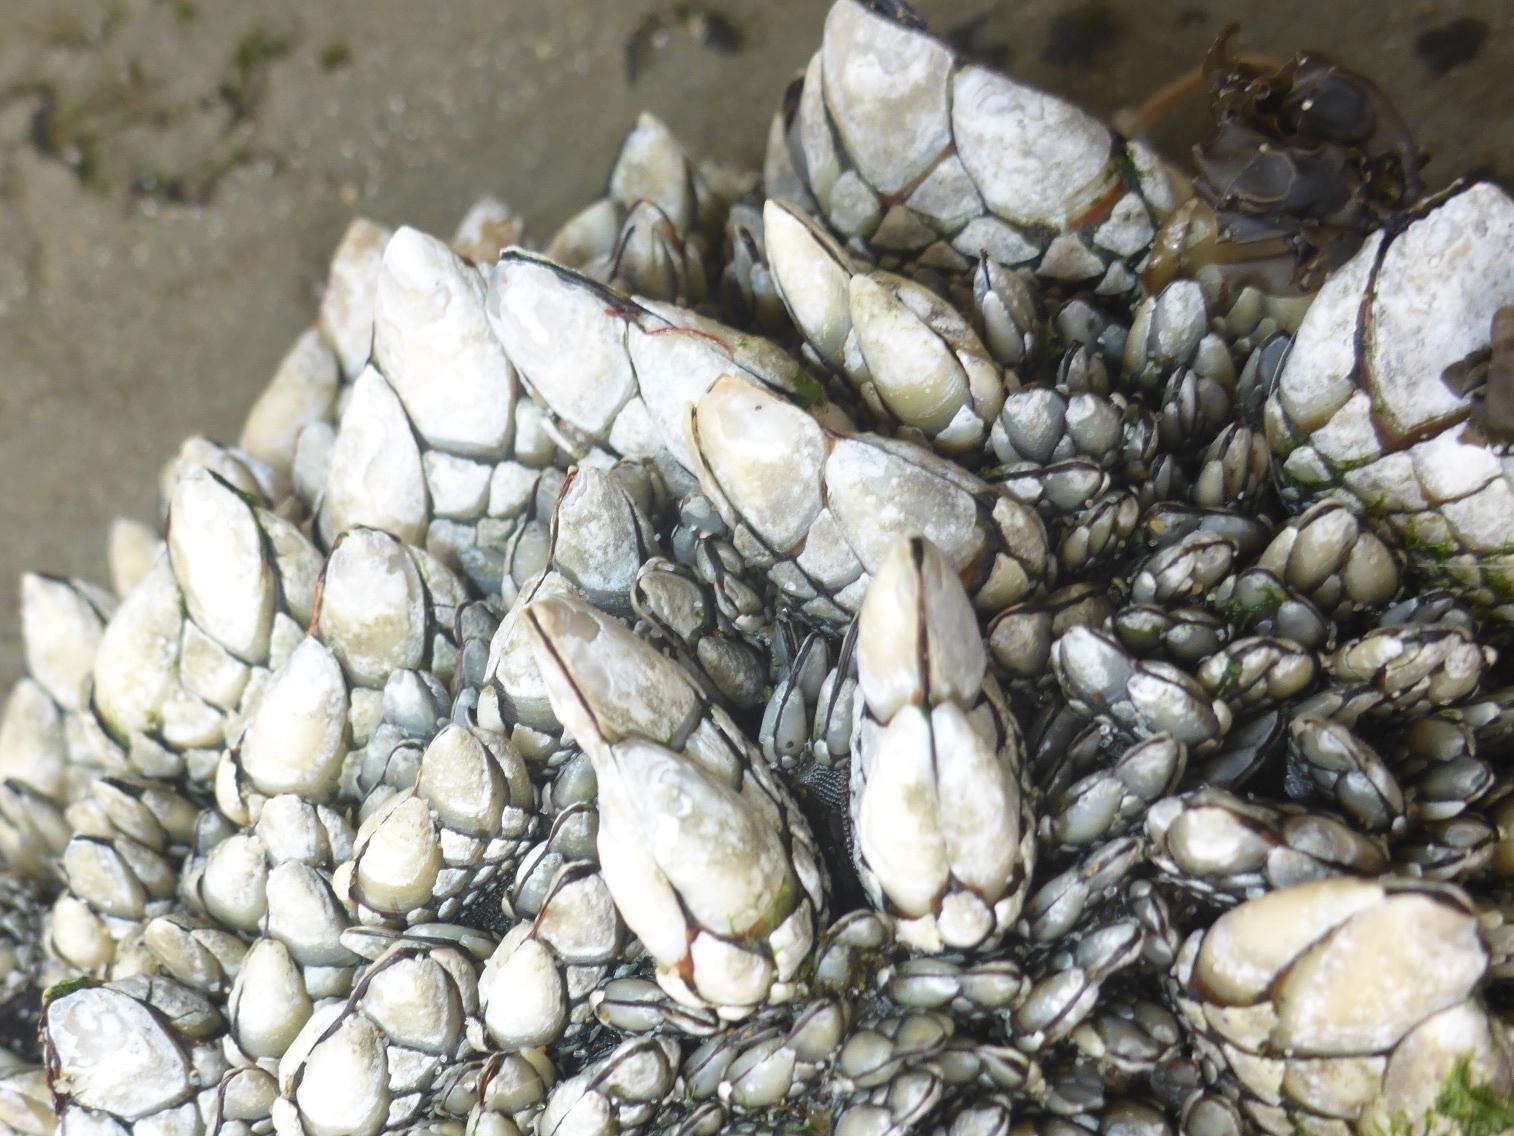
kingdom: Animalia
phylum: Arthropoda
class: Maxillopoda
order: Pedunculata
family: Pollicipedidae
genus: Pollicipes
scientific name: Pollicipes polymerus
